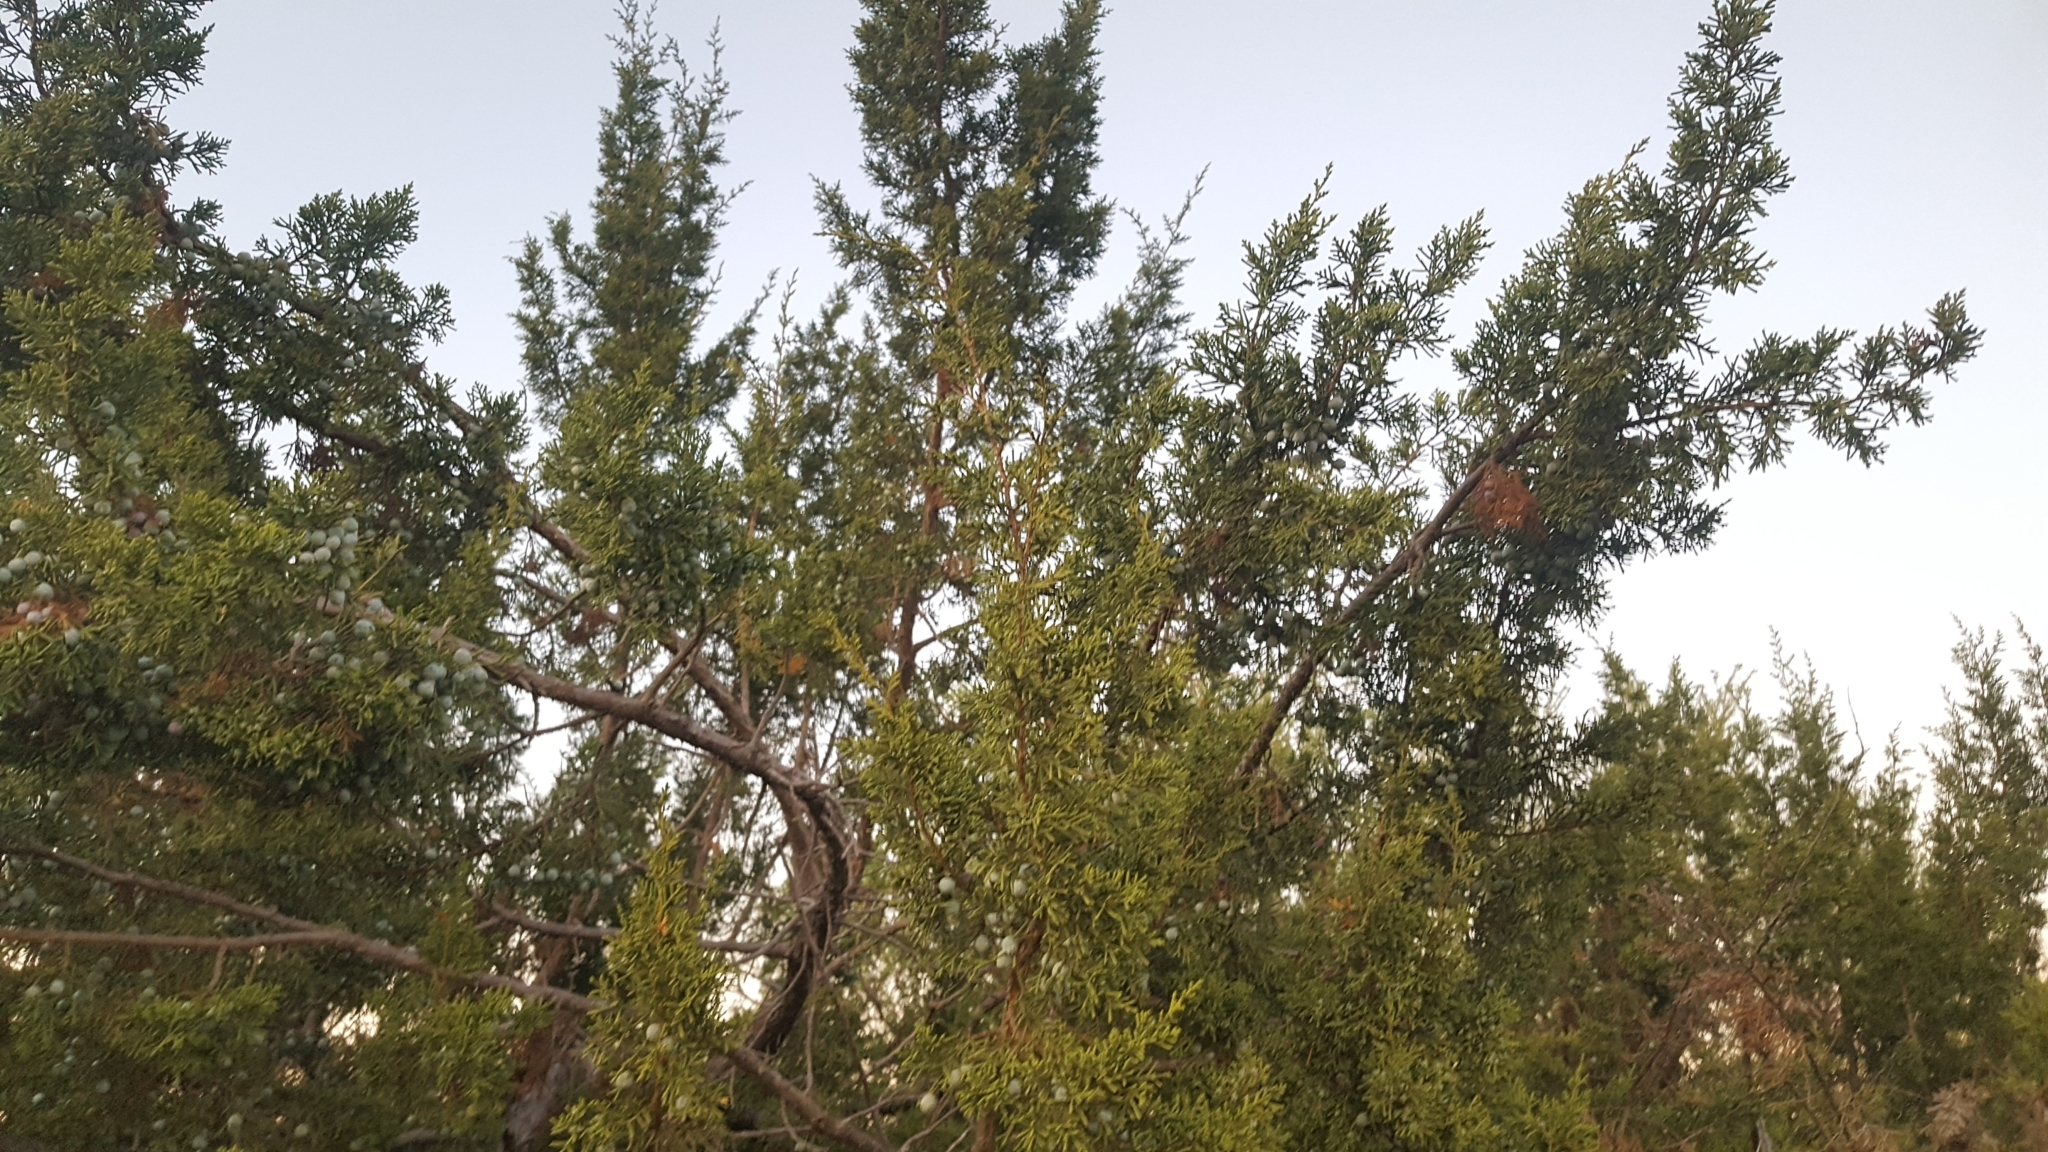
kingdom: Plantae
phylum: Tracheophyta
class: Pinopsida
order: Pinales
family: Cupressaceae
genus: Juniperus
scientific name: Juniperus californica
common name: California juniper
